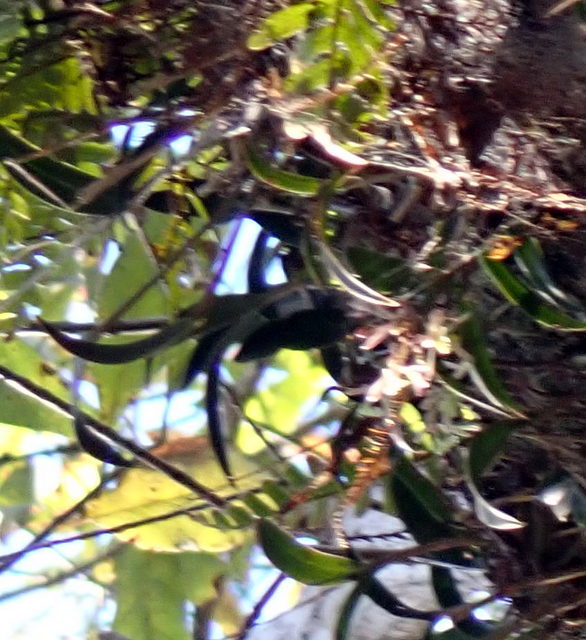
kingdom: Plantae
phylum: Tracheophyta
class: Liliopsida
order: Asparagales
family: Orchidaceae
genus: Epidendrum
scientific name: Epidendrum conopseum
